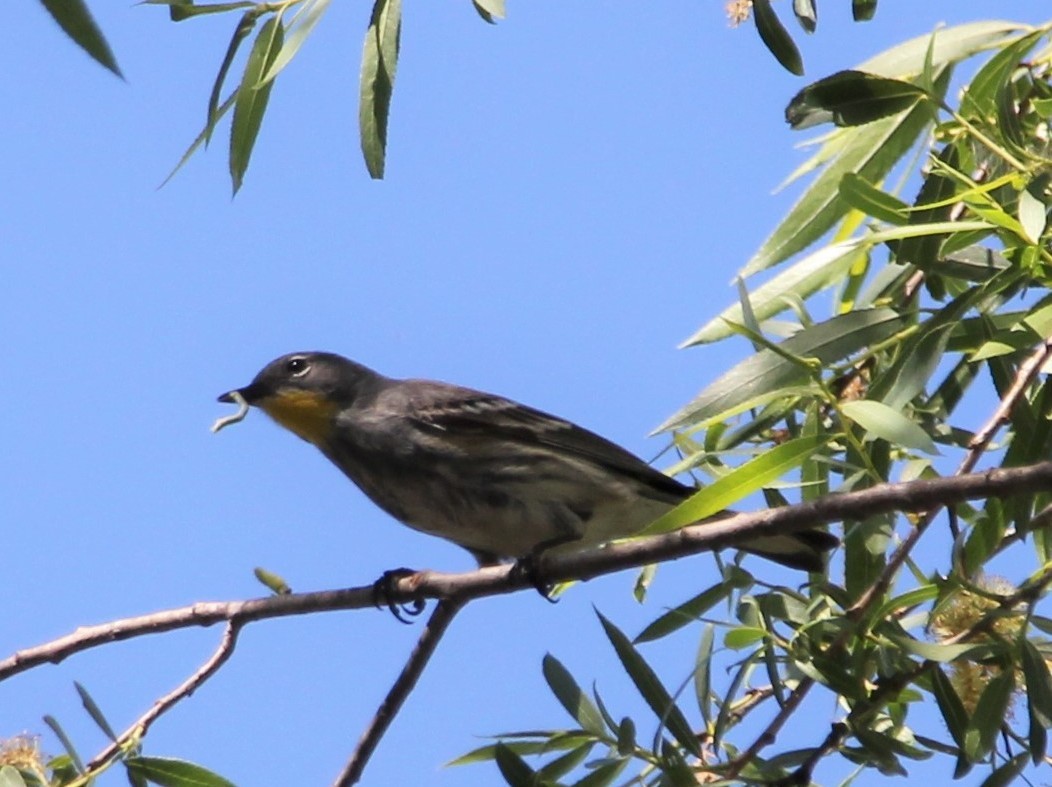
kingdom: Animalia
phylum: Chordata
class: Aves
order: Passeriformes
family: Parulidae
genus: Setophaga
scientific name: Setophaga auduboni
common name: Audubon's warbler
